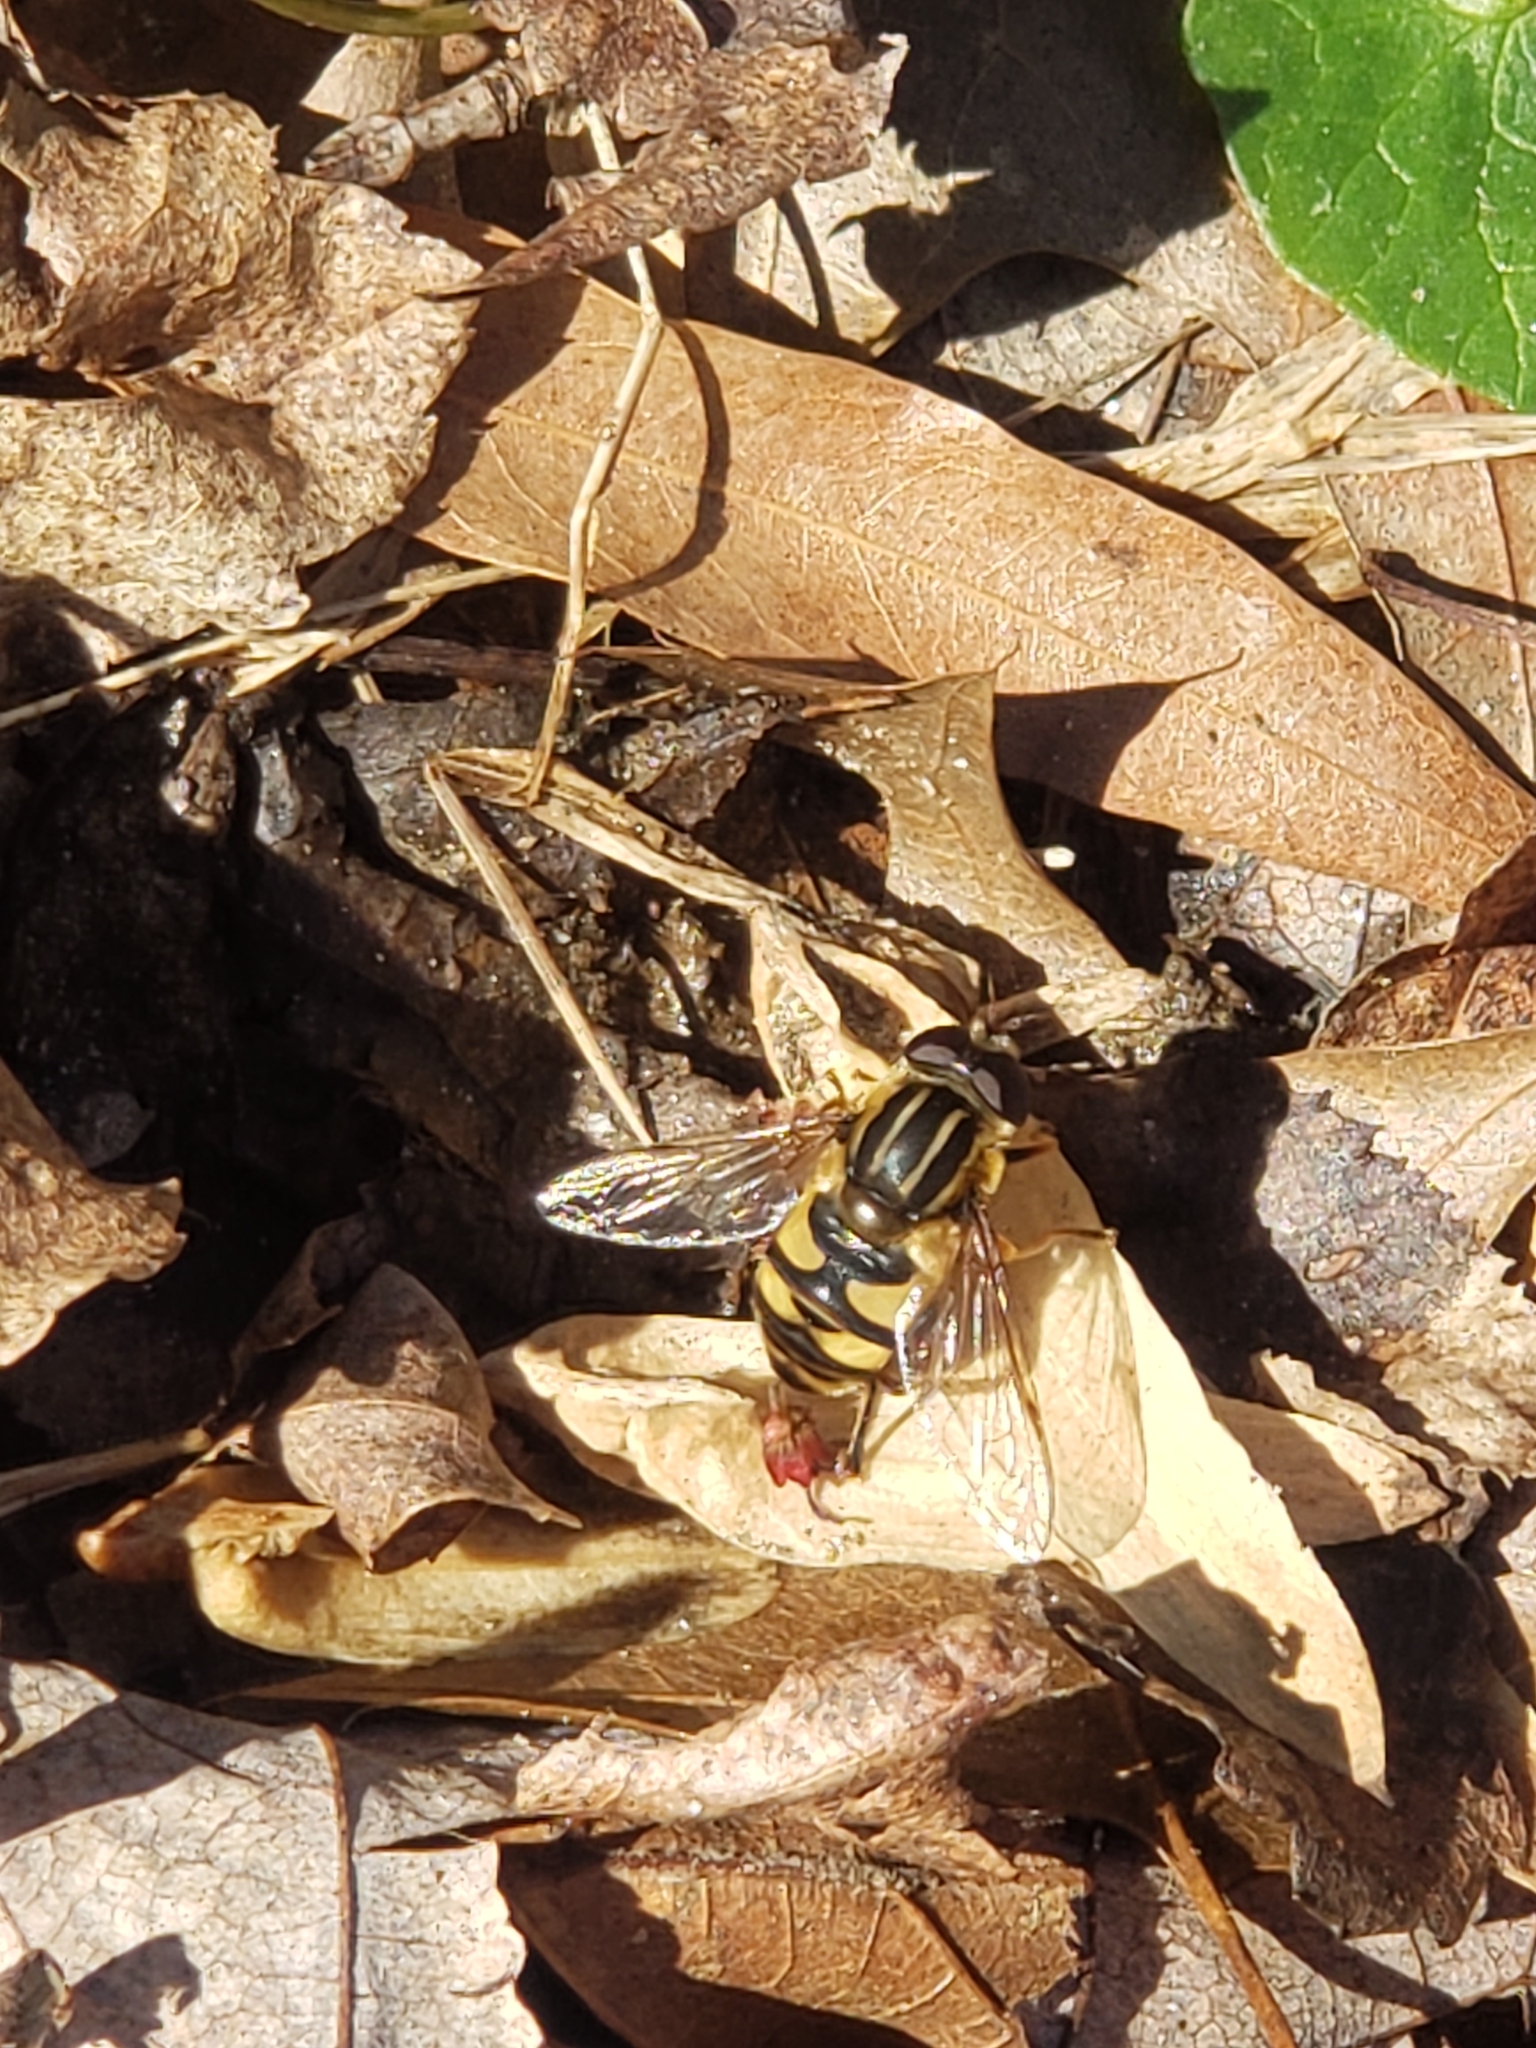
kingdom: Animalia
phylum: Arthropoda
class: Insecta
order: Diptera
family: Syrphidae
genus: Helophilus
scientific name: Helophilus fasciatus
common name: Narrow-headed marsh fly
